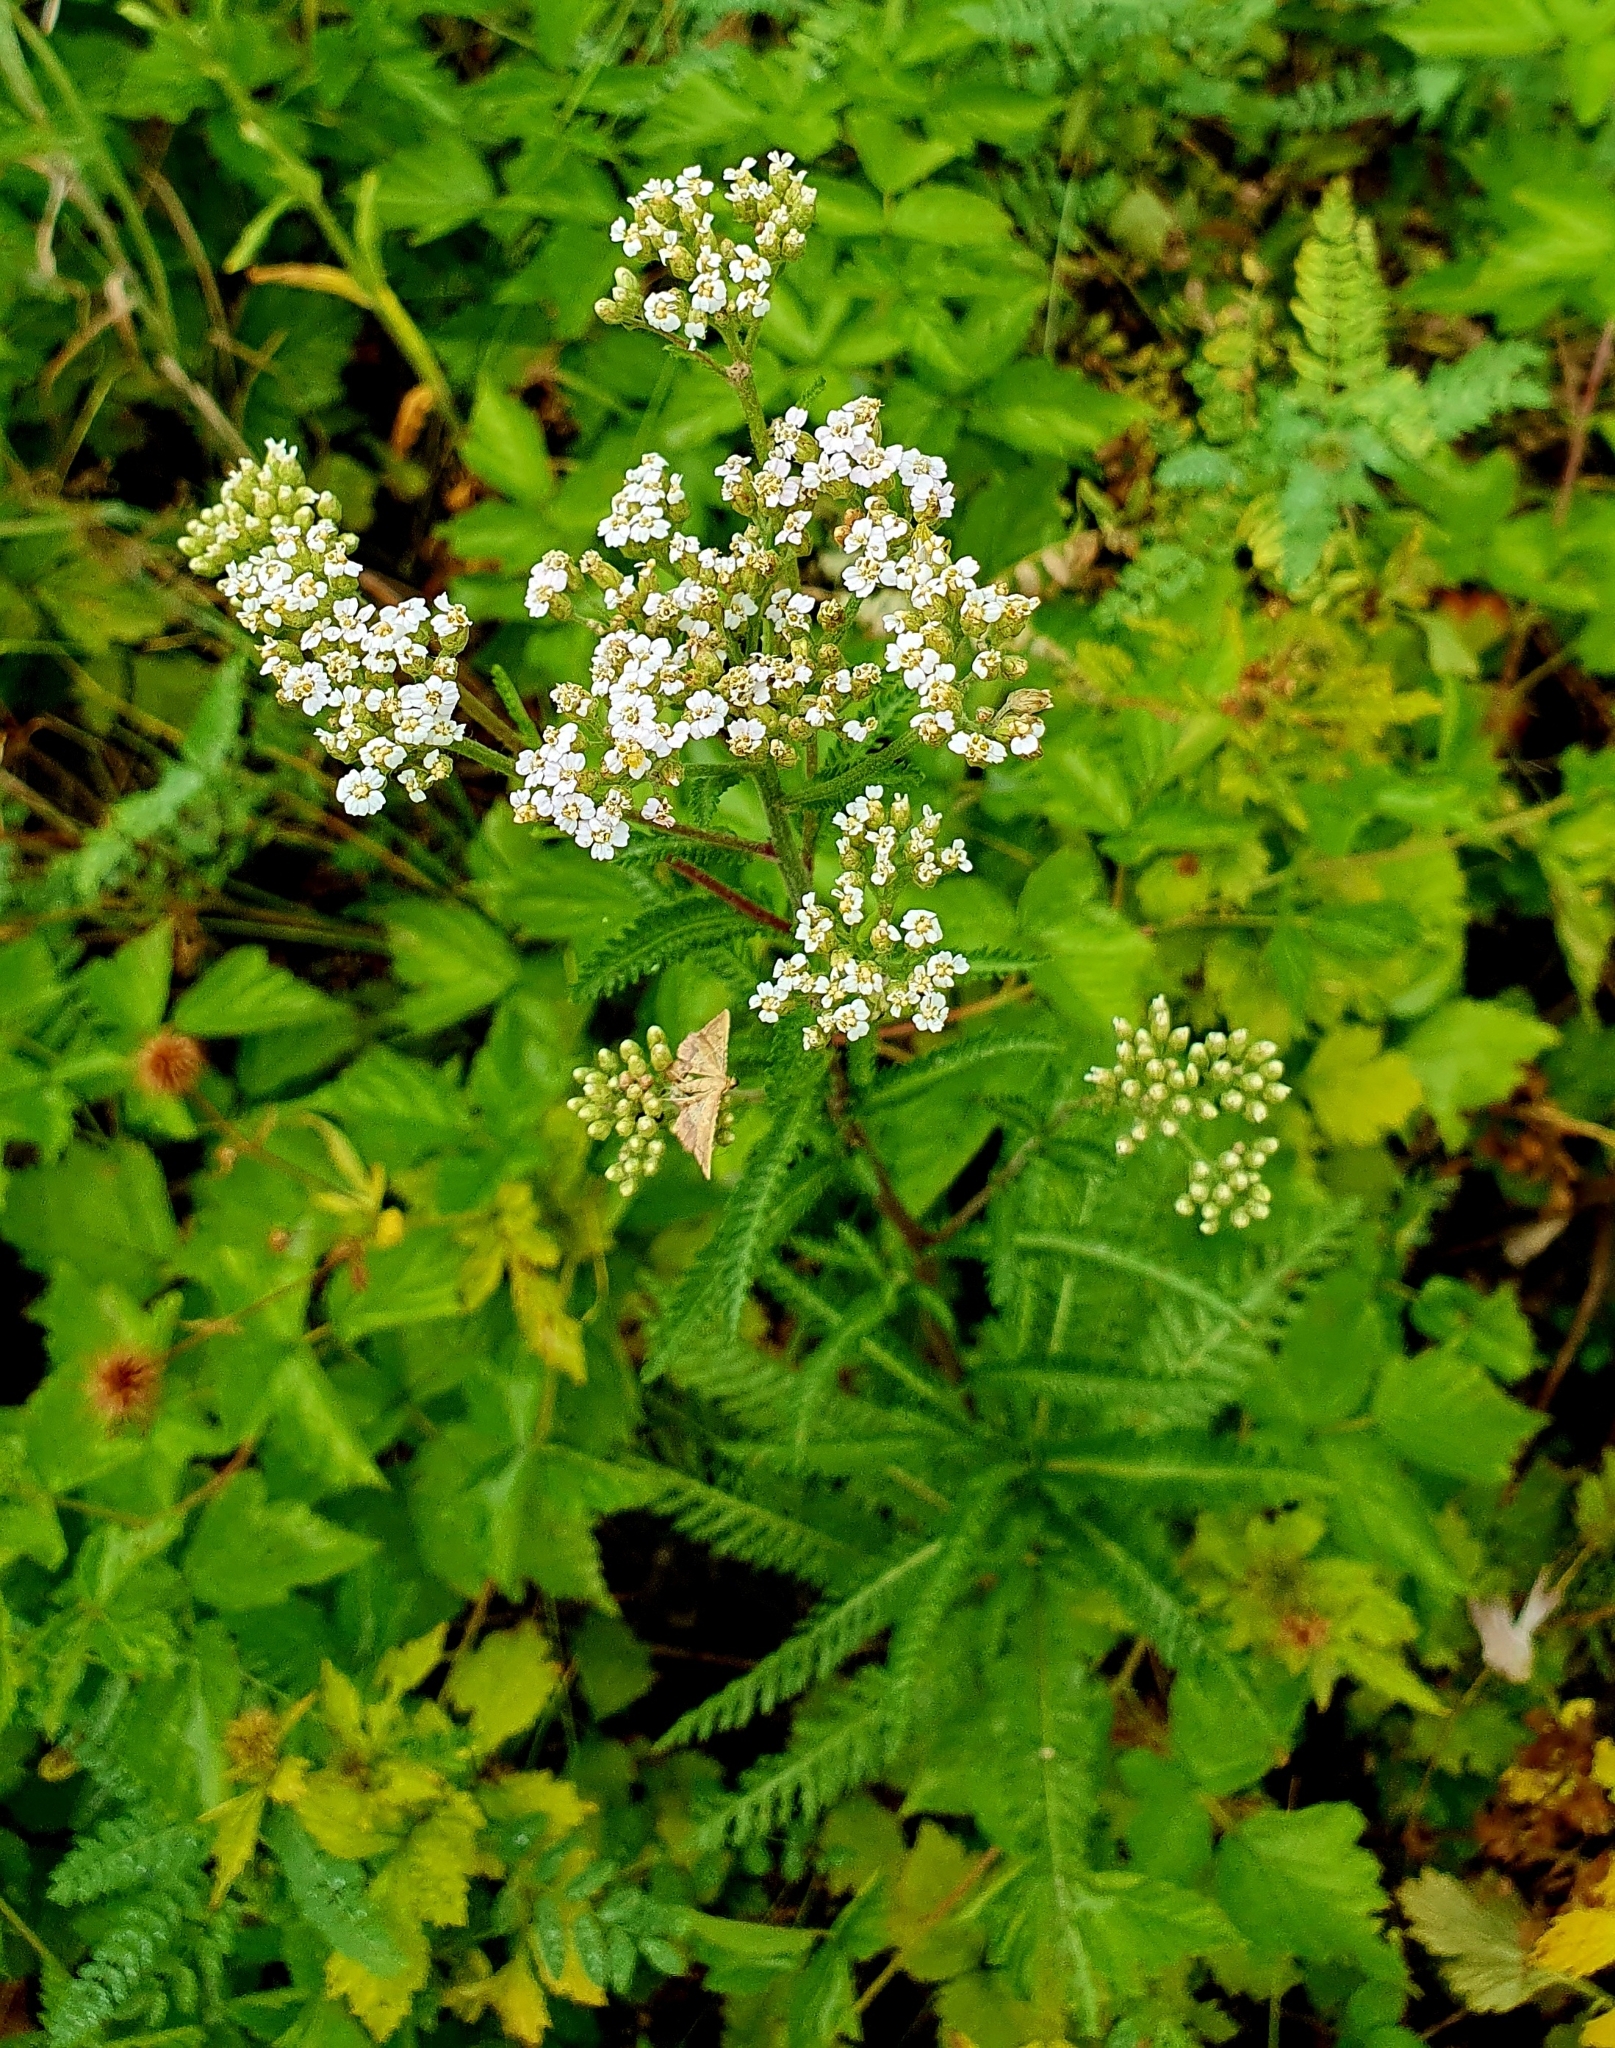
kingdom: Plantae
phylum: Tracheophyta
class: Magnoliopsida
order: Asterales
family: Asteraceae
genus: Achillea
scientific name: Achillea millefolium
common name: Yarrow
